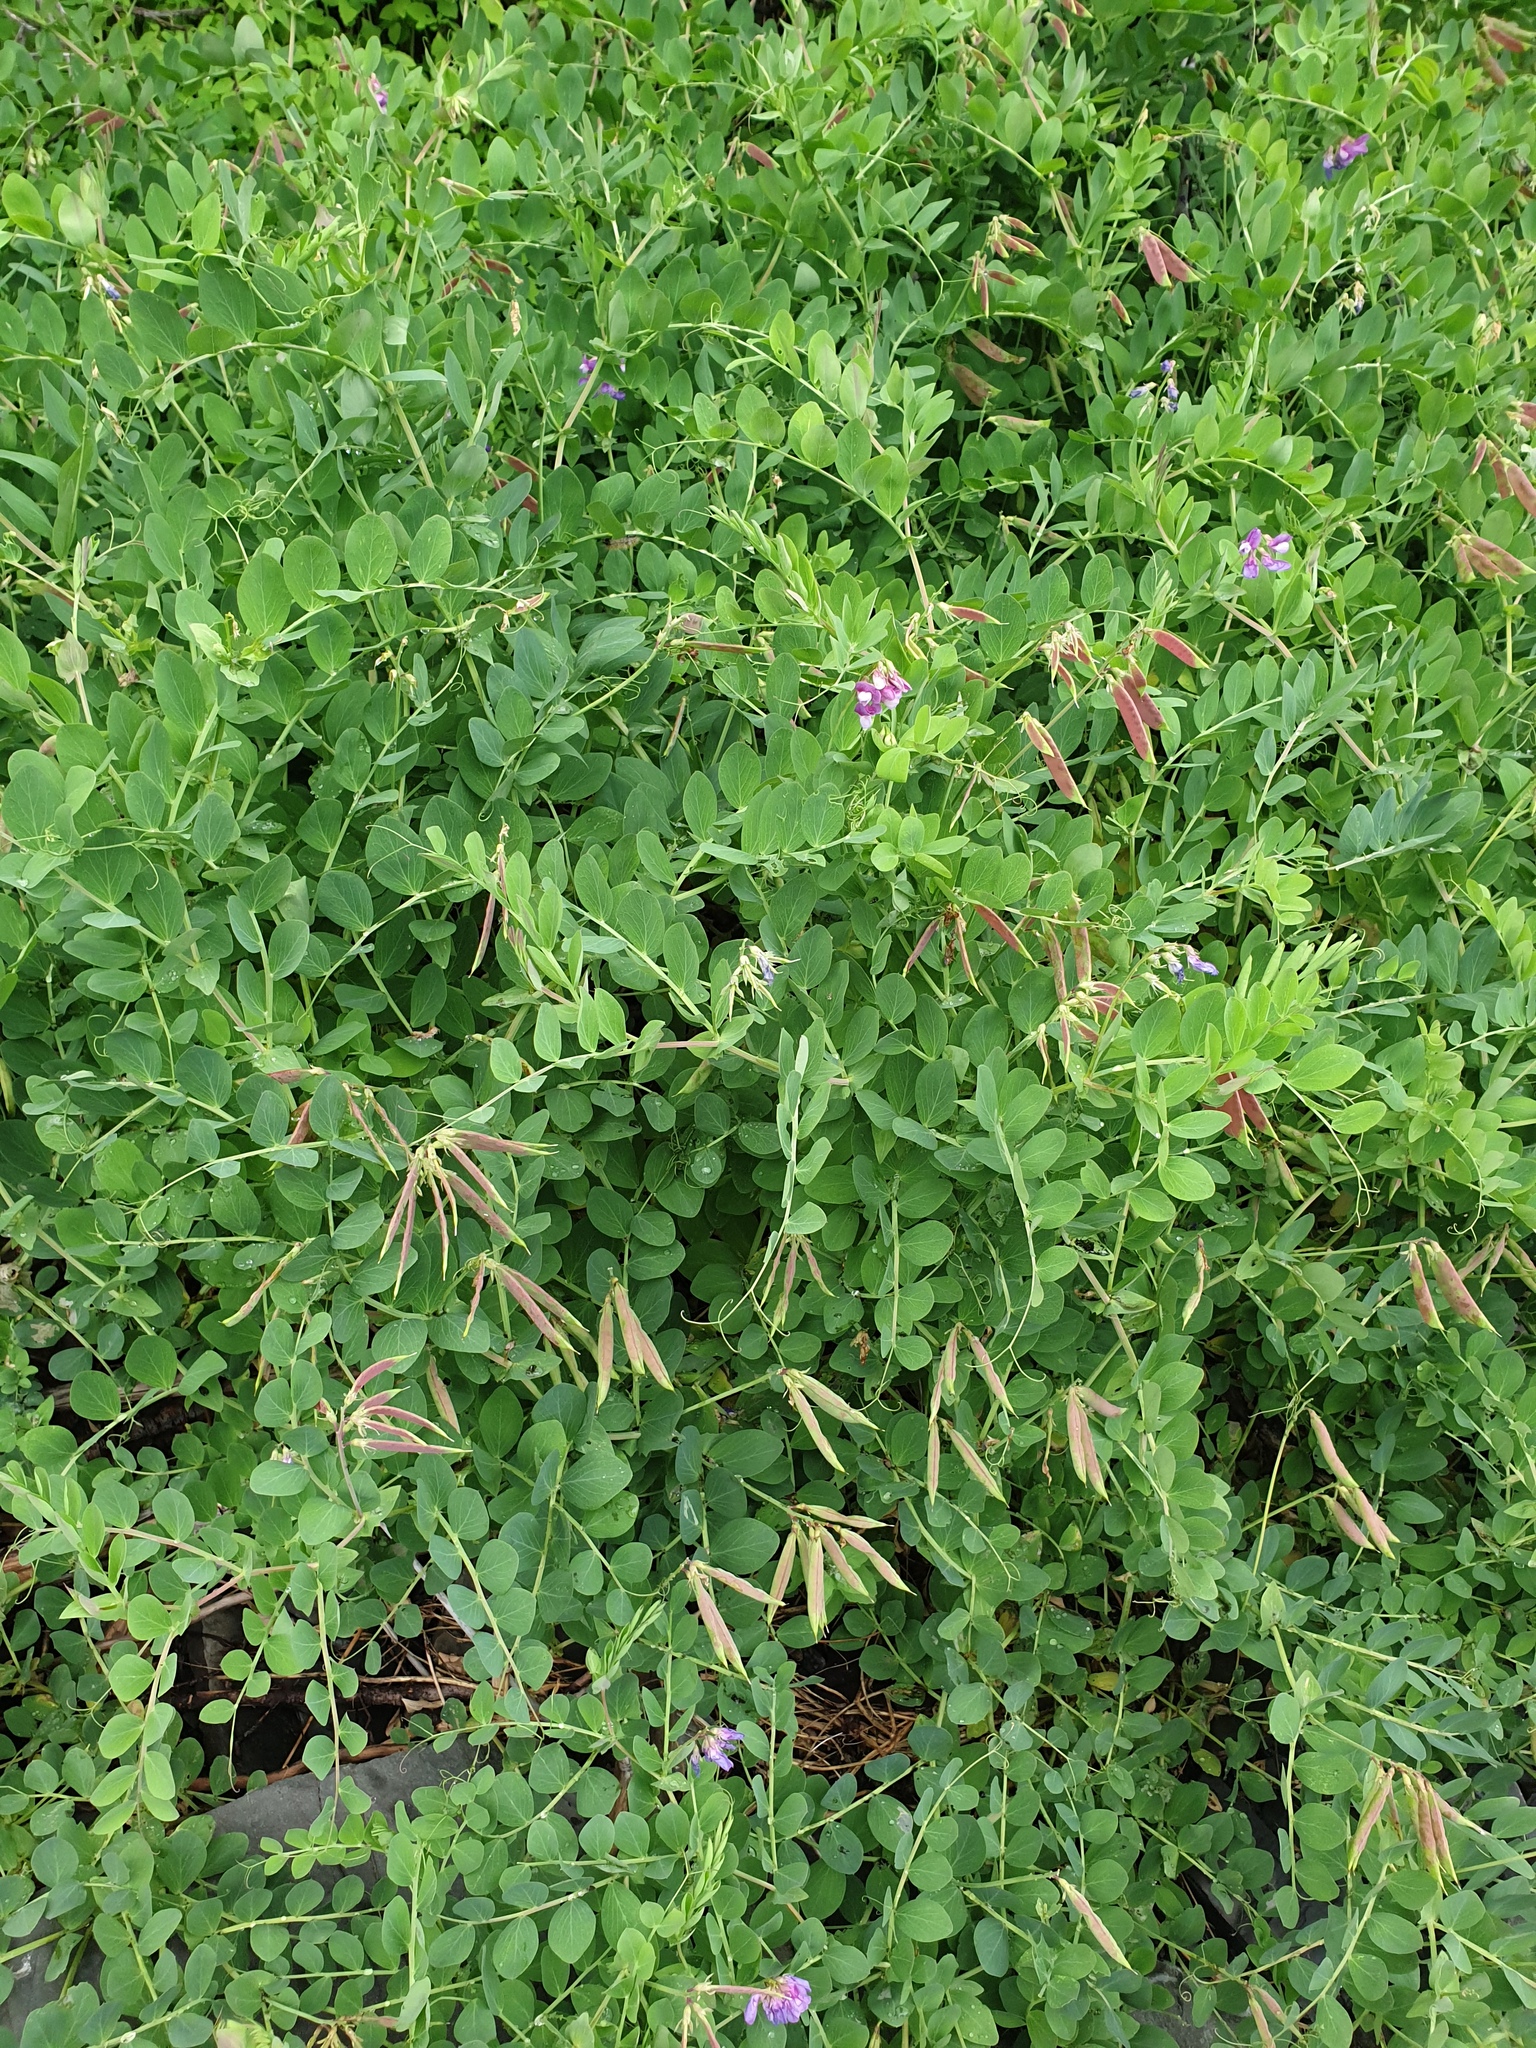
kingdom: Plantae
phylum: Tracheophyta
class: Magnoliopsida
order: Fabales
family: Fabaceae
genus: Lathyrus
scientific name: Lathyrus japonicus
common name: Sea pea
